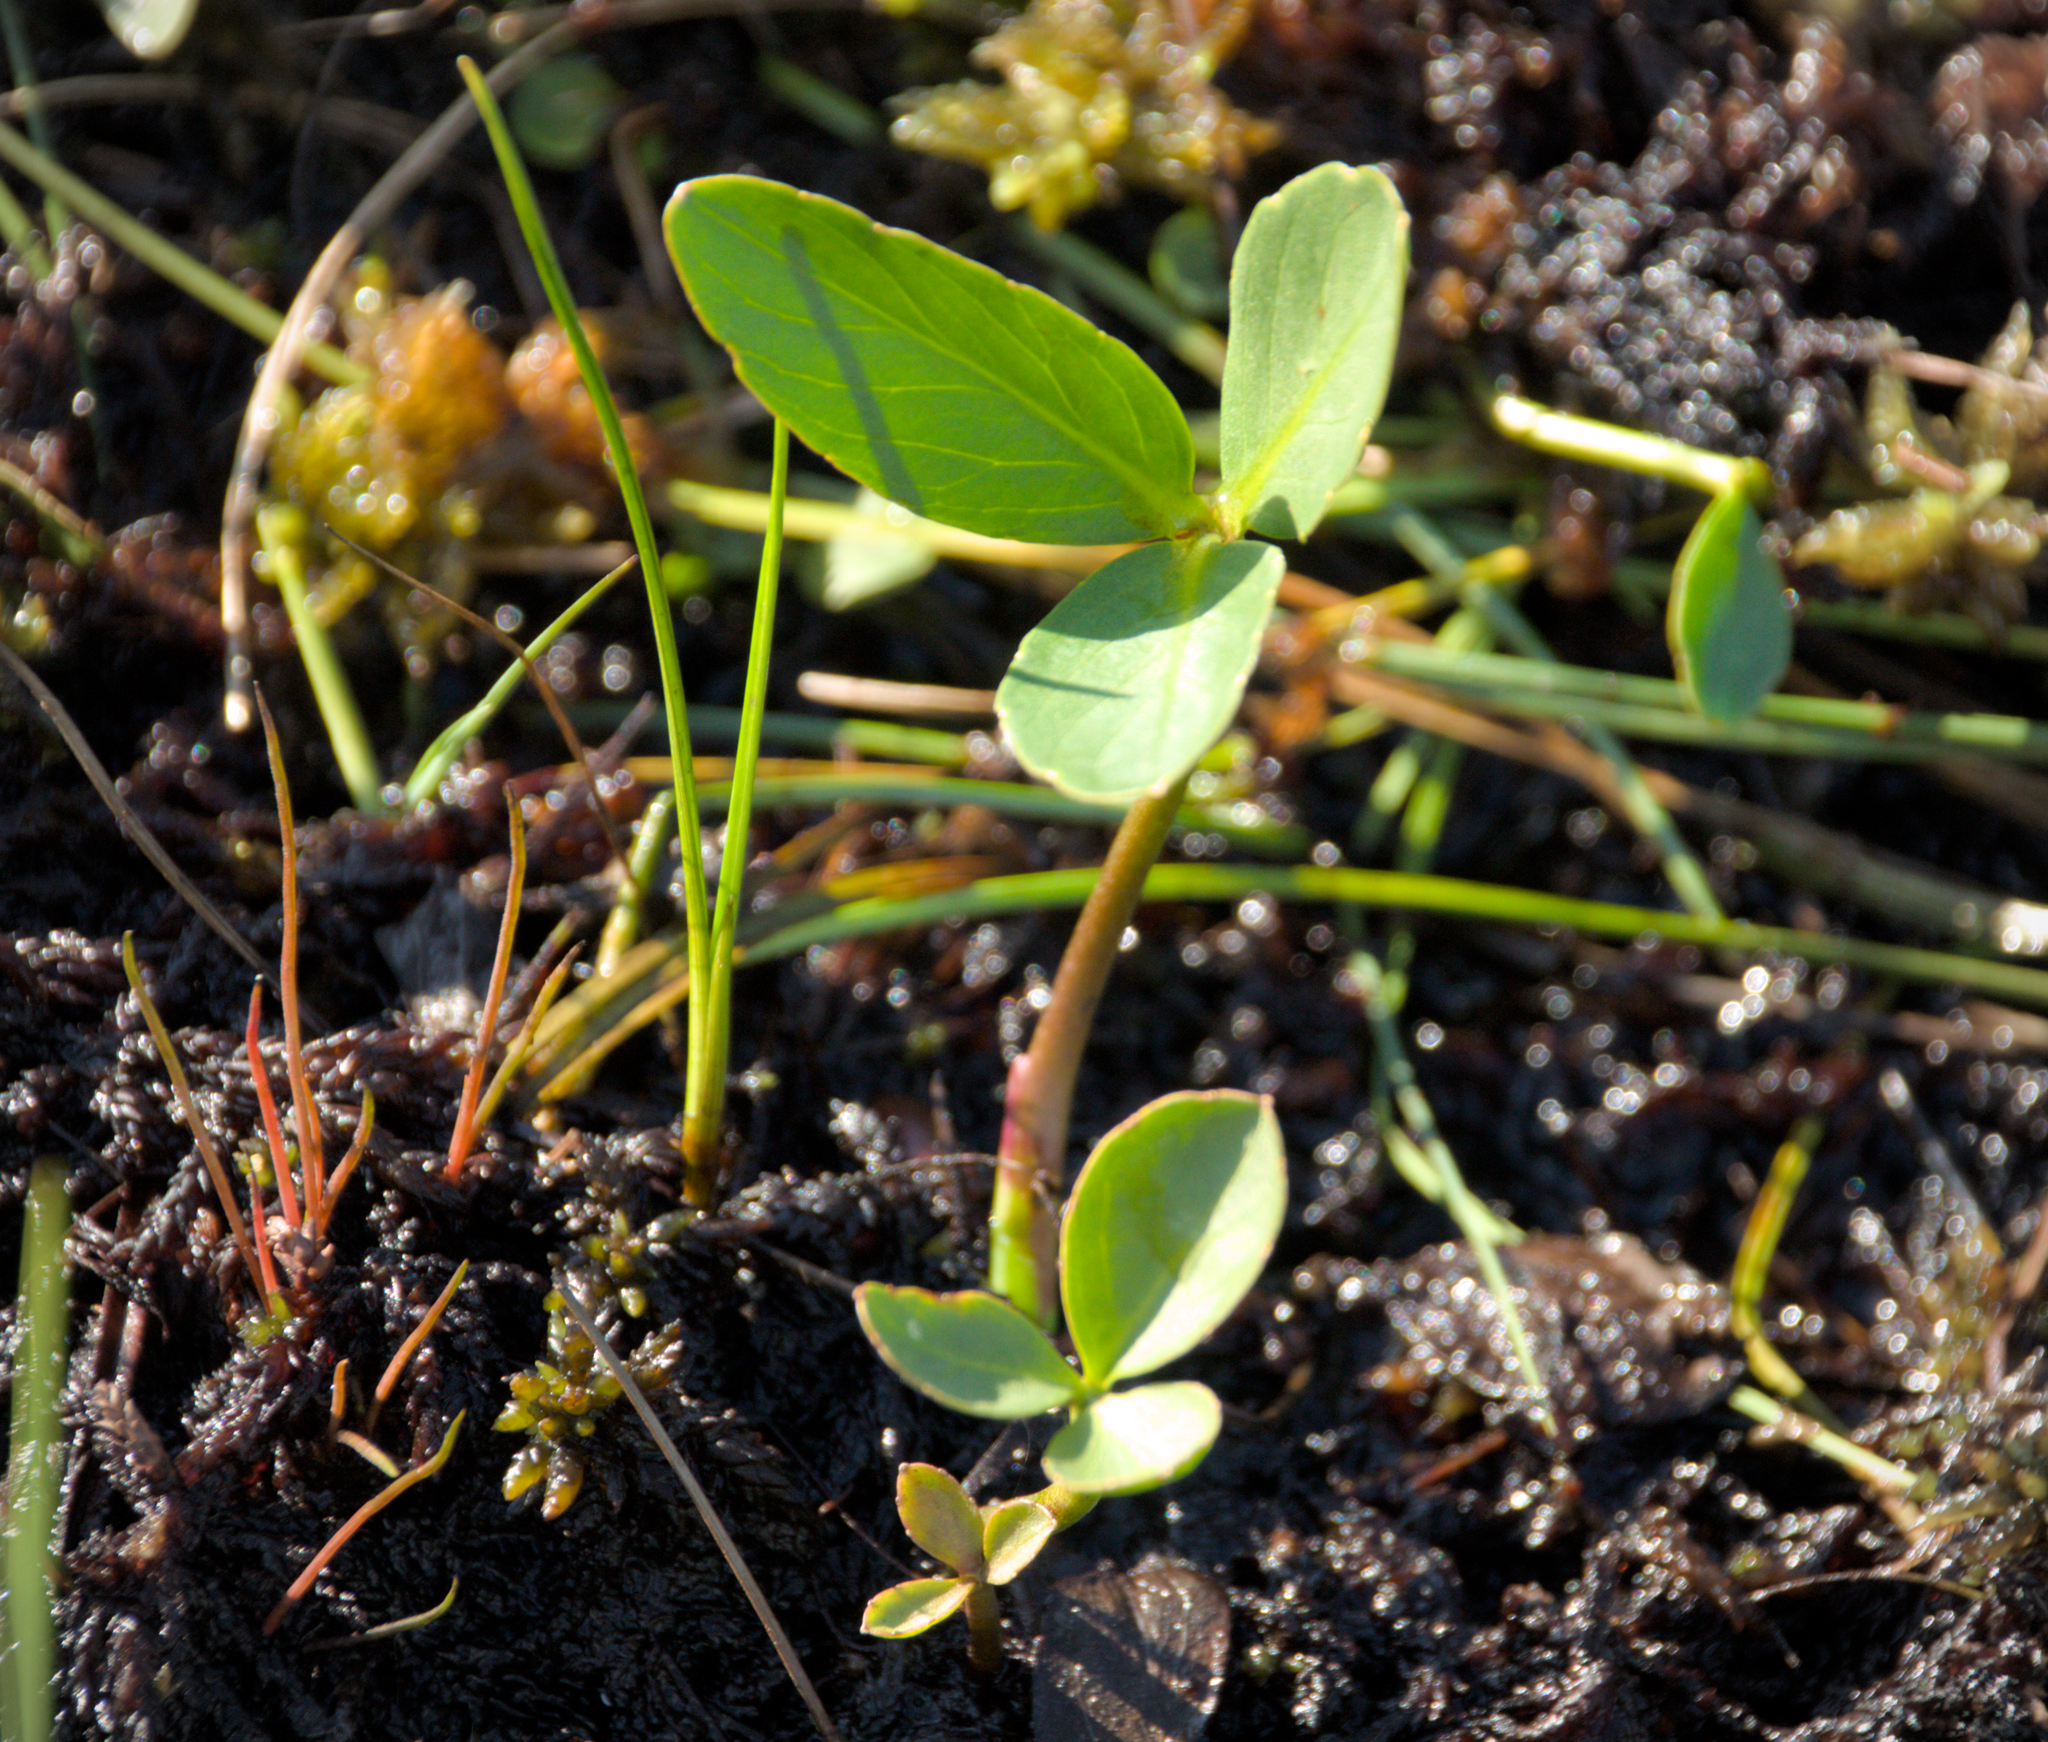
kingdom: Plantae
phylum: Tracheophyta
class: Magnoliopsida
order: Asterales
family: Menyanthaceae
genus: Menyanthes
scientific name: Menyanthes trifoliata
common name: Bogbean
